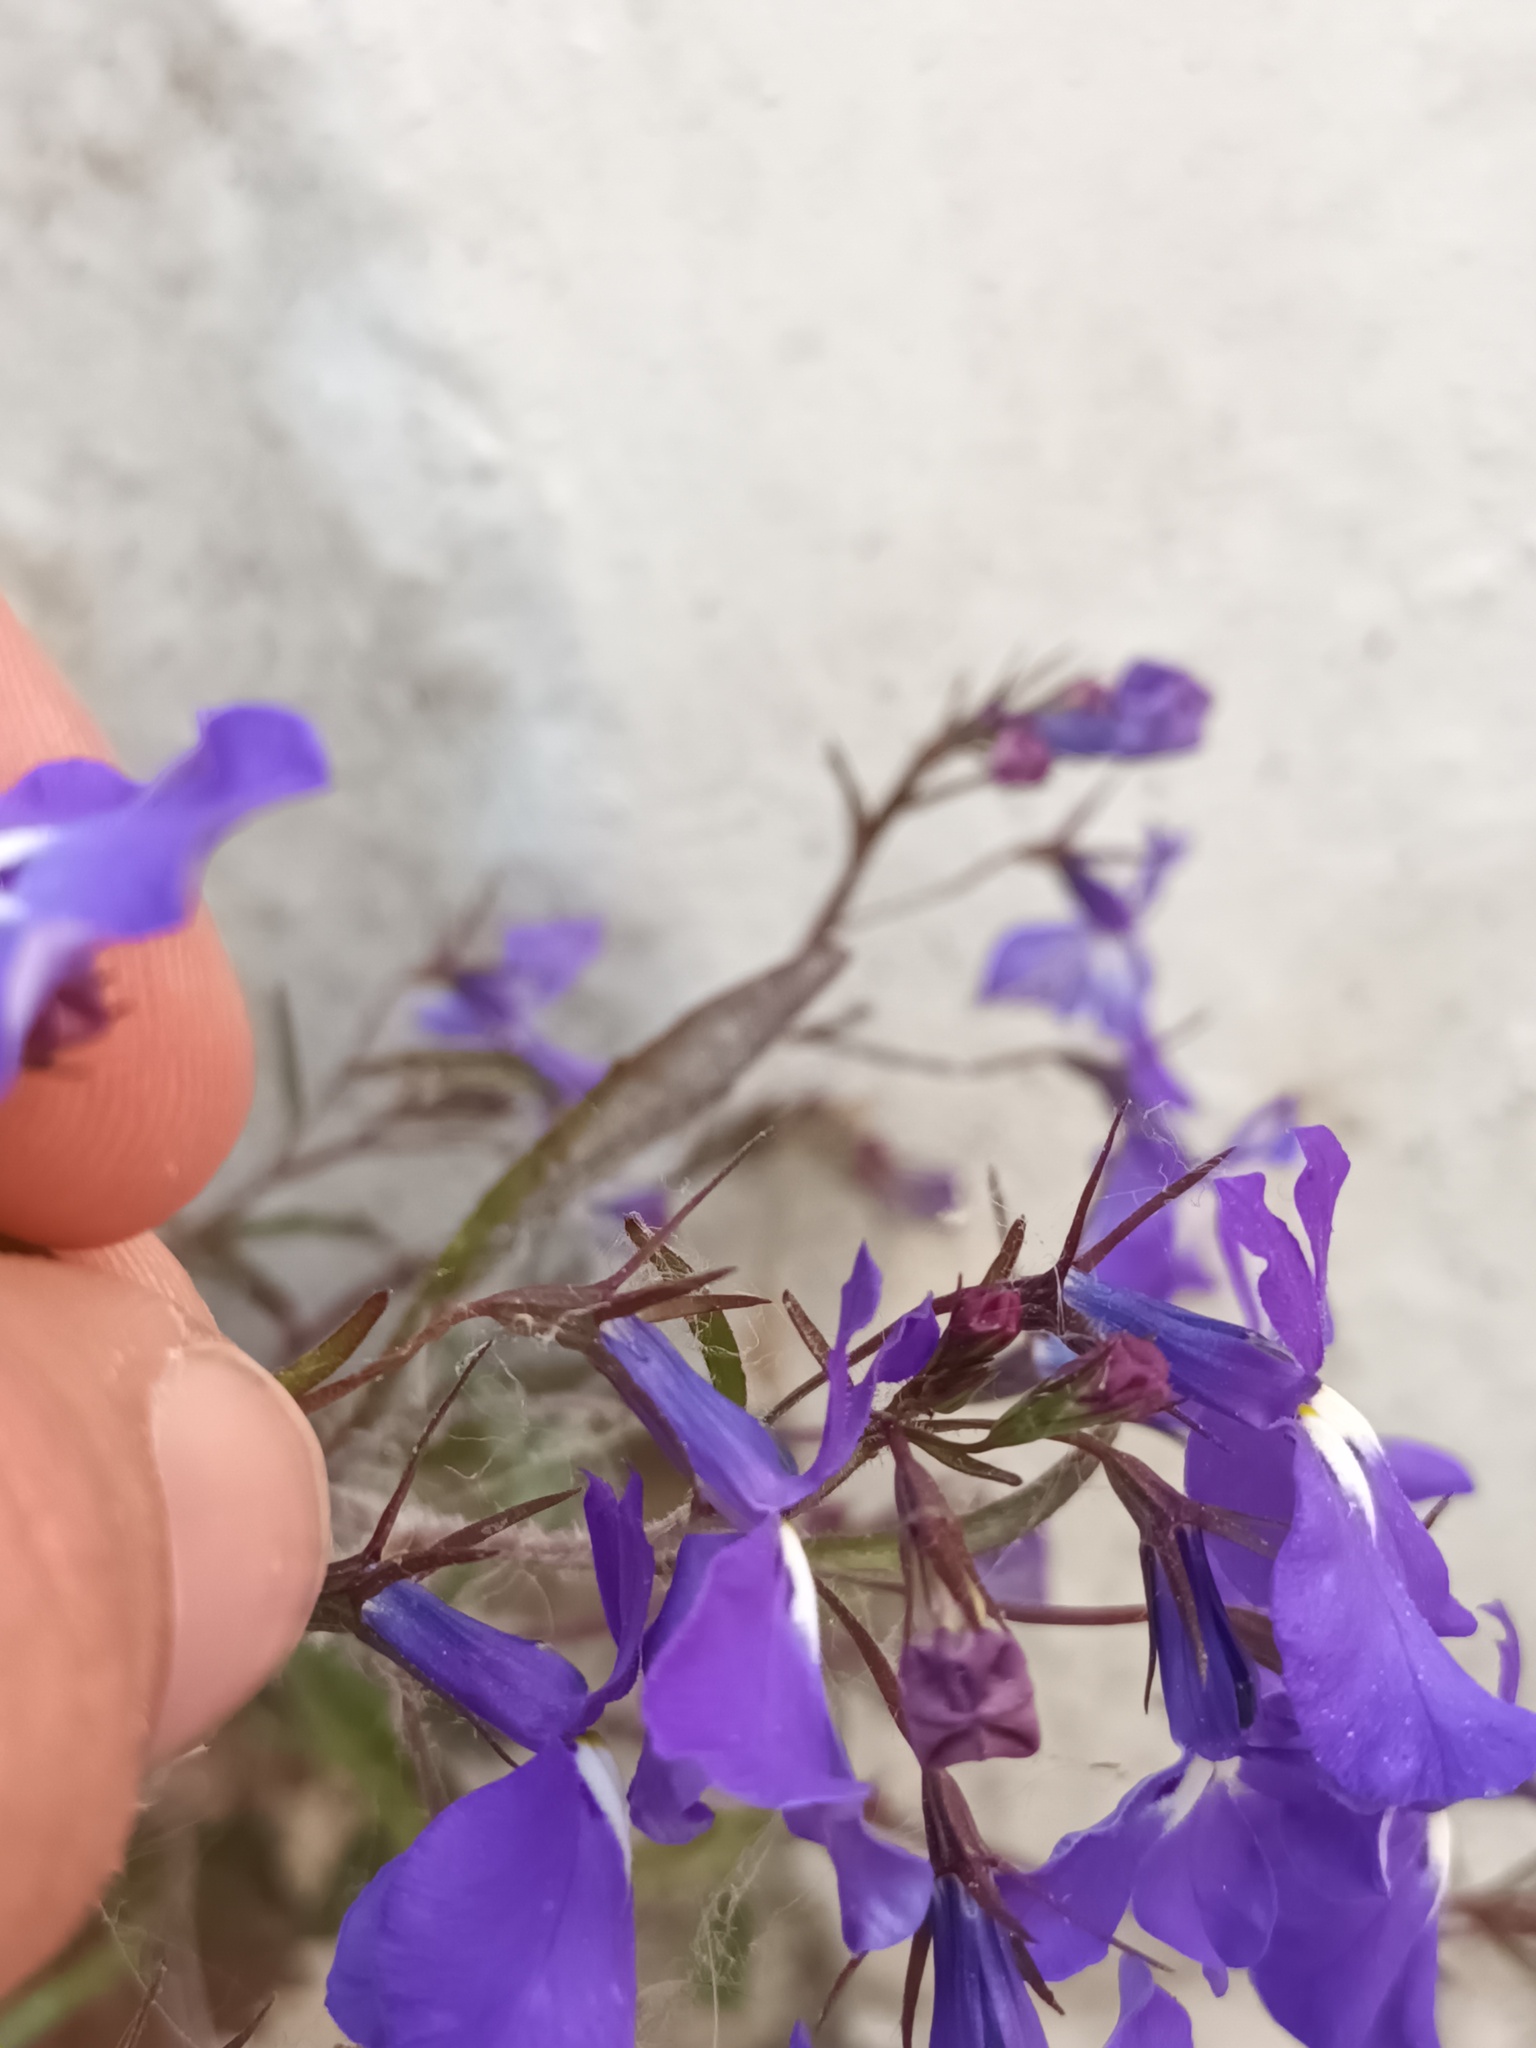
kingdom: Plantae
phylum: Tracheophyta
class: Magnoliopsida
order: Asterales
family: Campanulaceae
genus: Lobelia
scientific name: Lobelia erinus
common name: Edging lobelia
